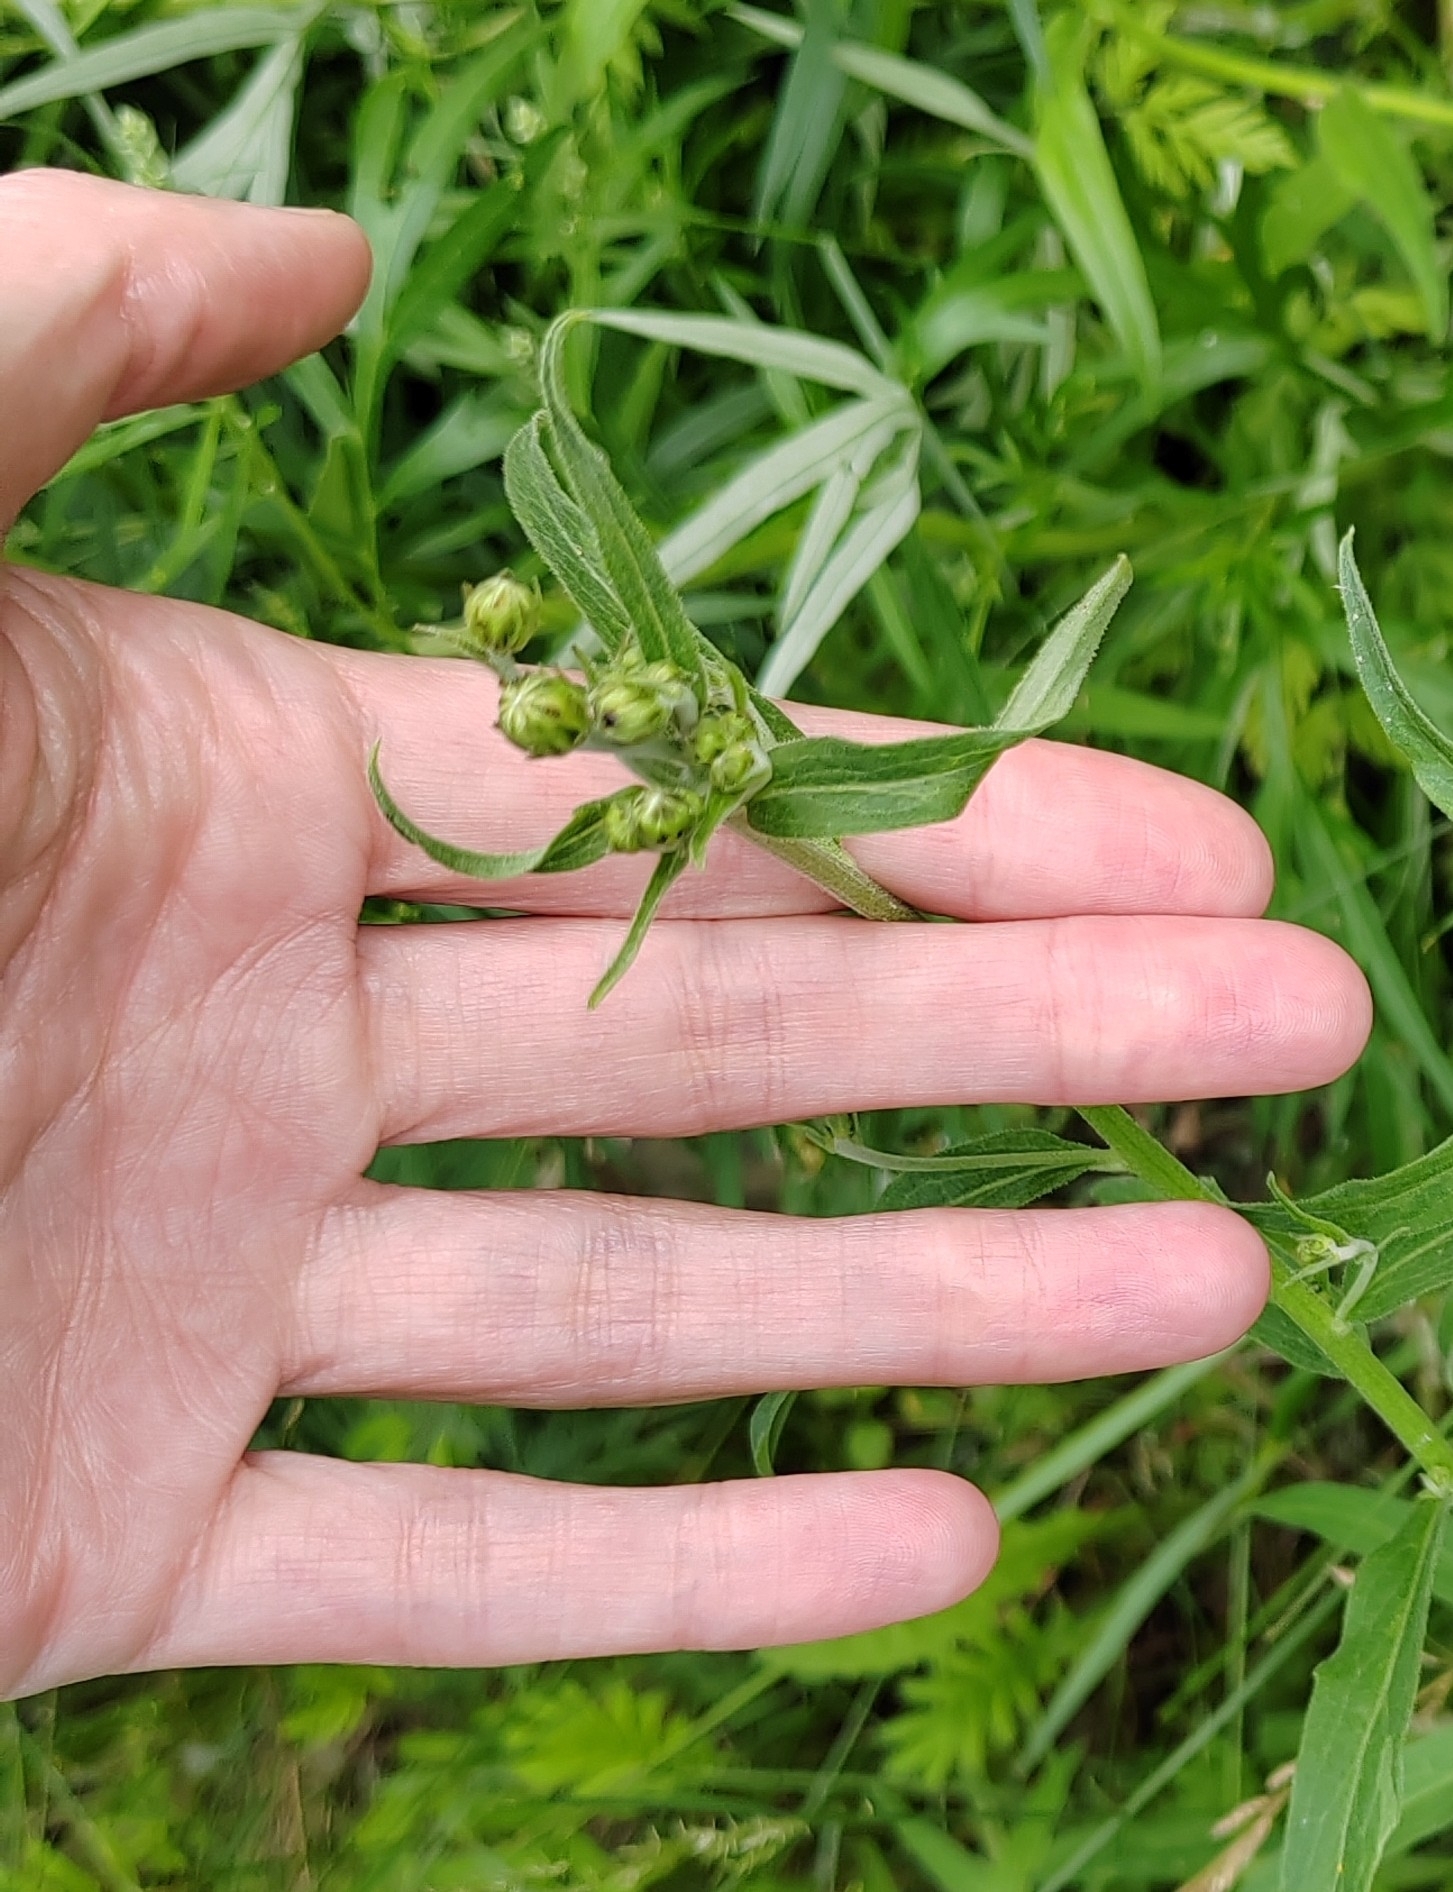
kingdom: Plantae
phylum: Tracheophyta
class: Magnoliopsida
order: Asterales
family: Asteraceae
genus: Hieracium
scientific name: Hieracium umbellatum
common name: Northern hawkweed
